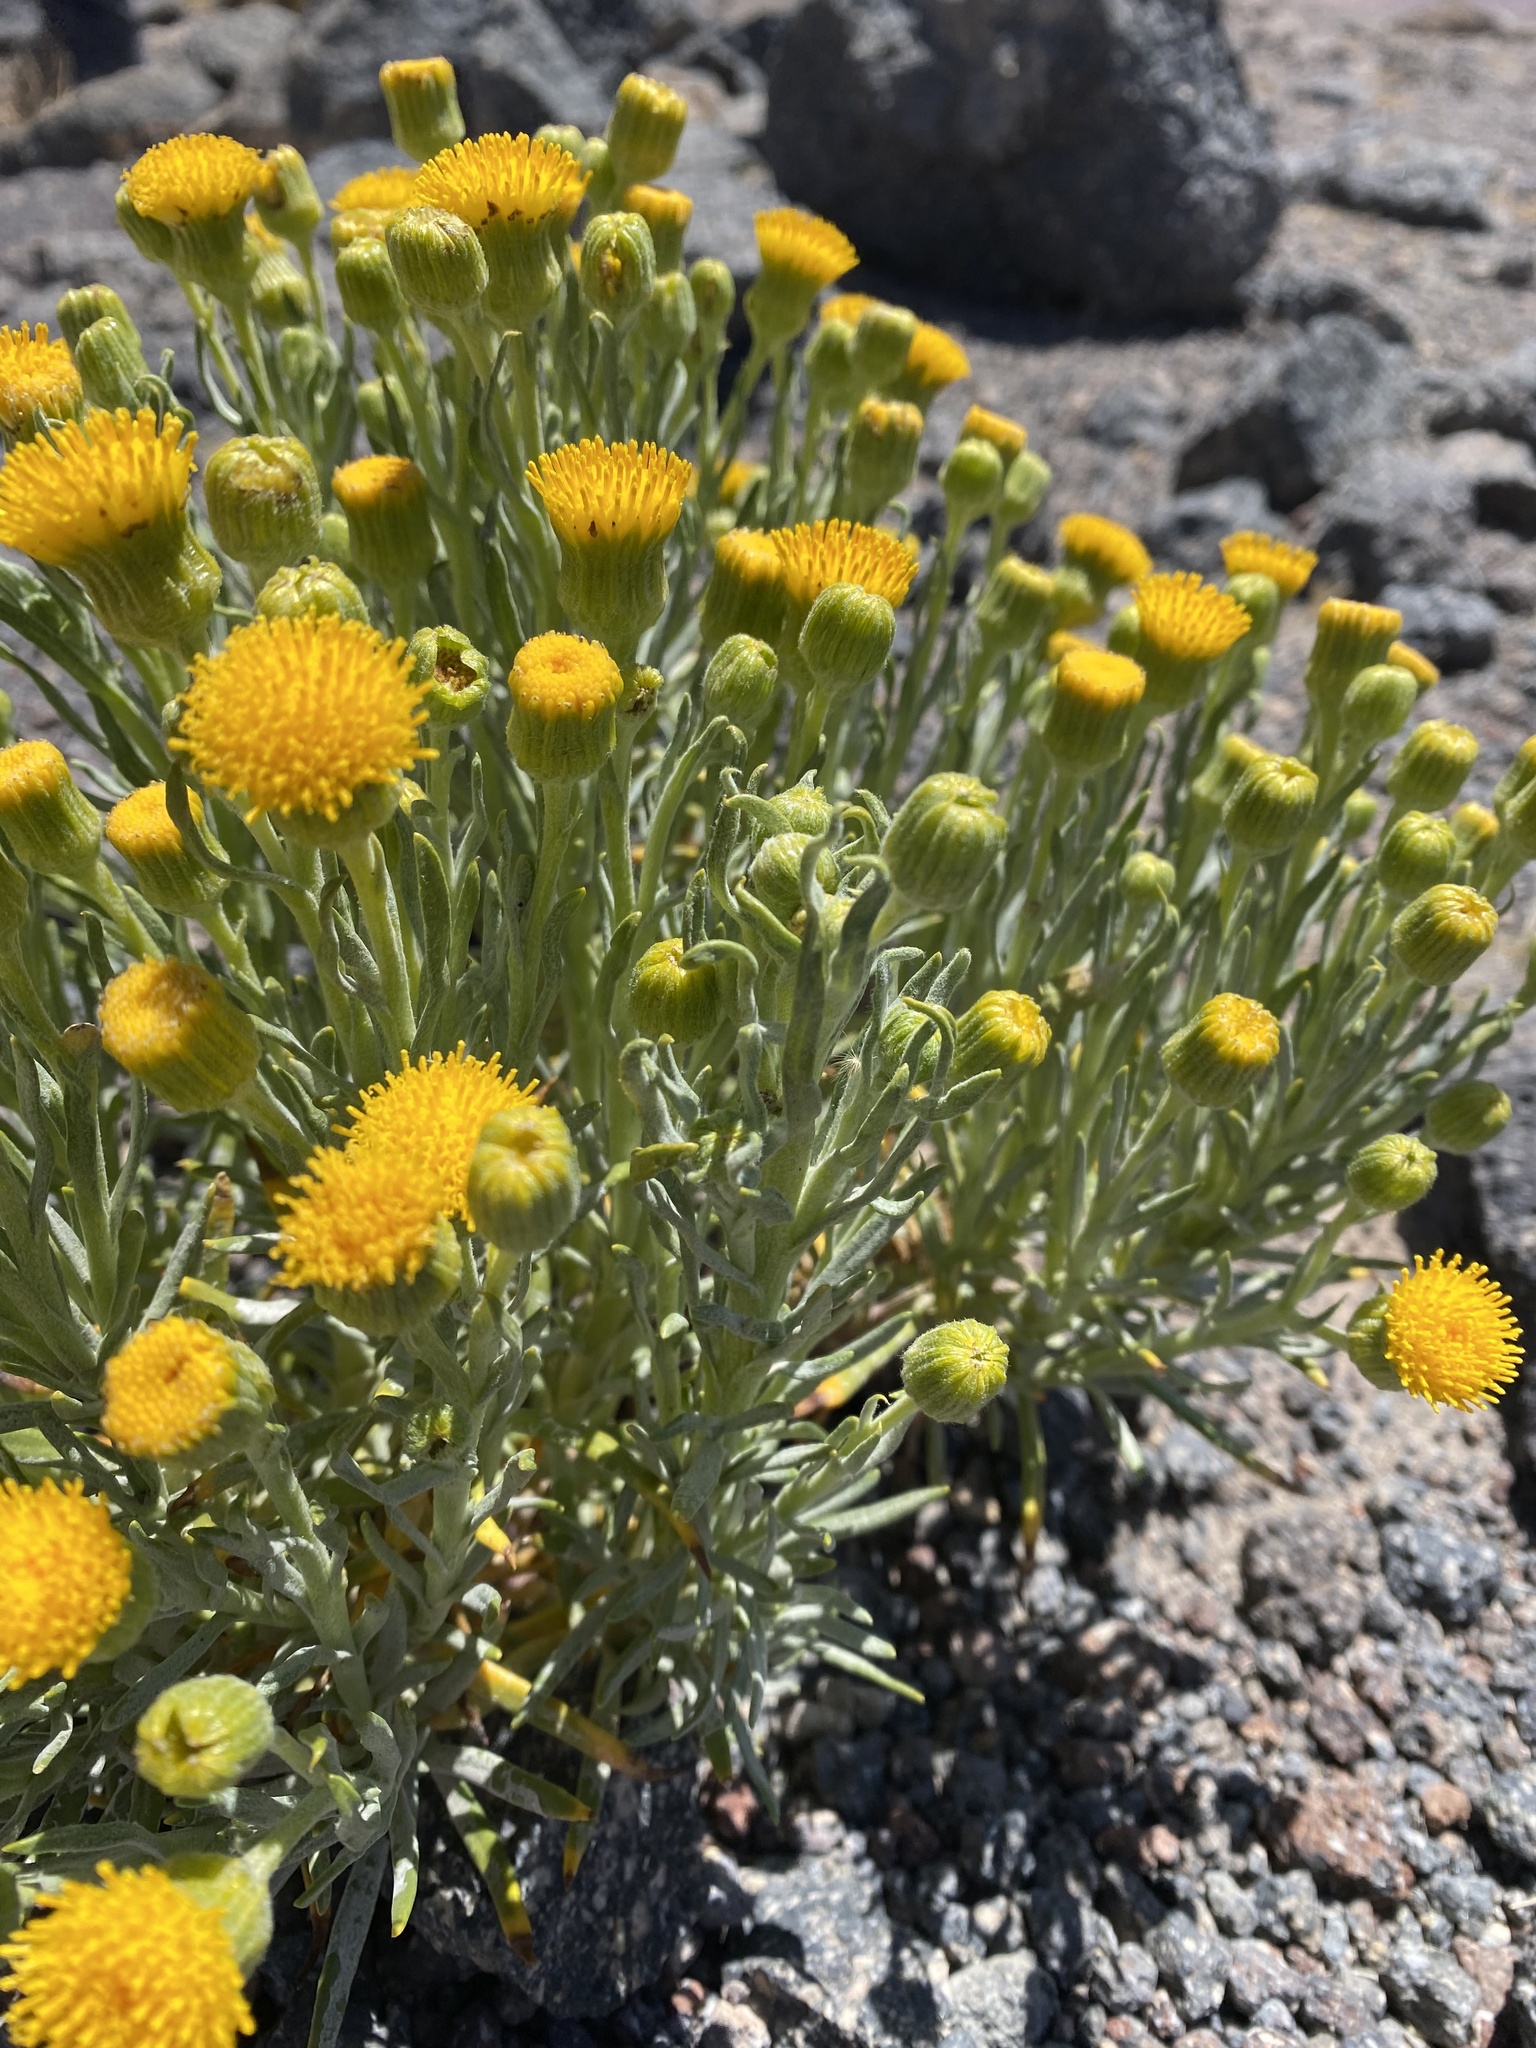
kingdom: Plantae
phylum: Tracheophyta
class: Magnoliopsida
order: Asterales
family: Asteraceae
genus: Senecio
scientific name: Senecio volckmannii
